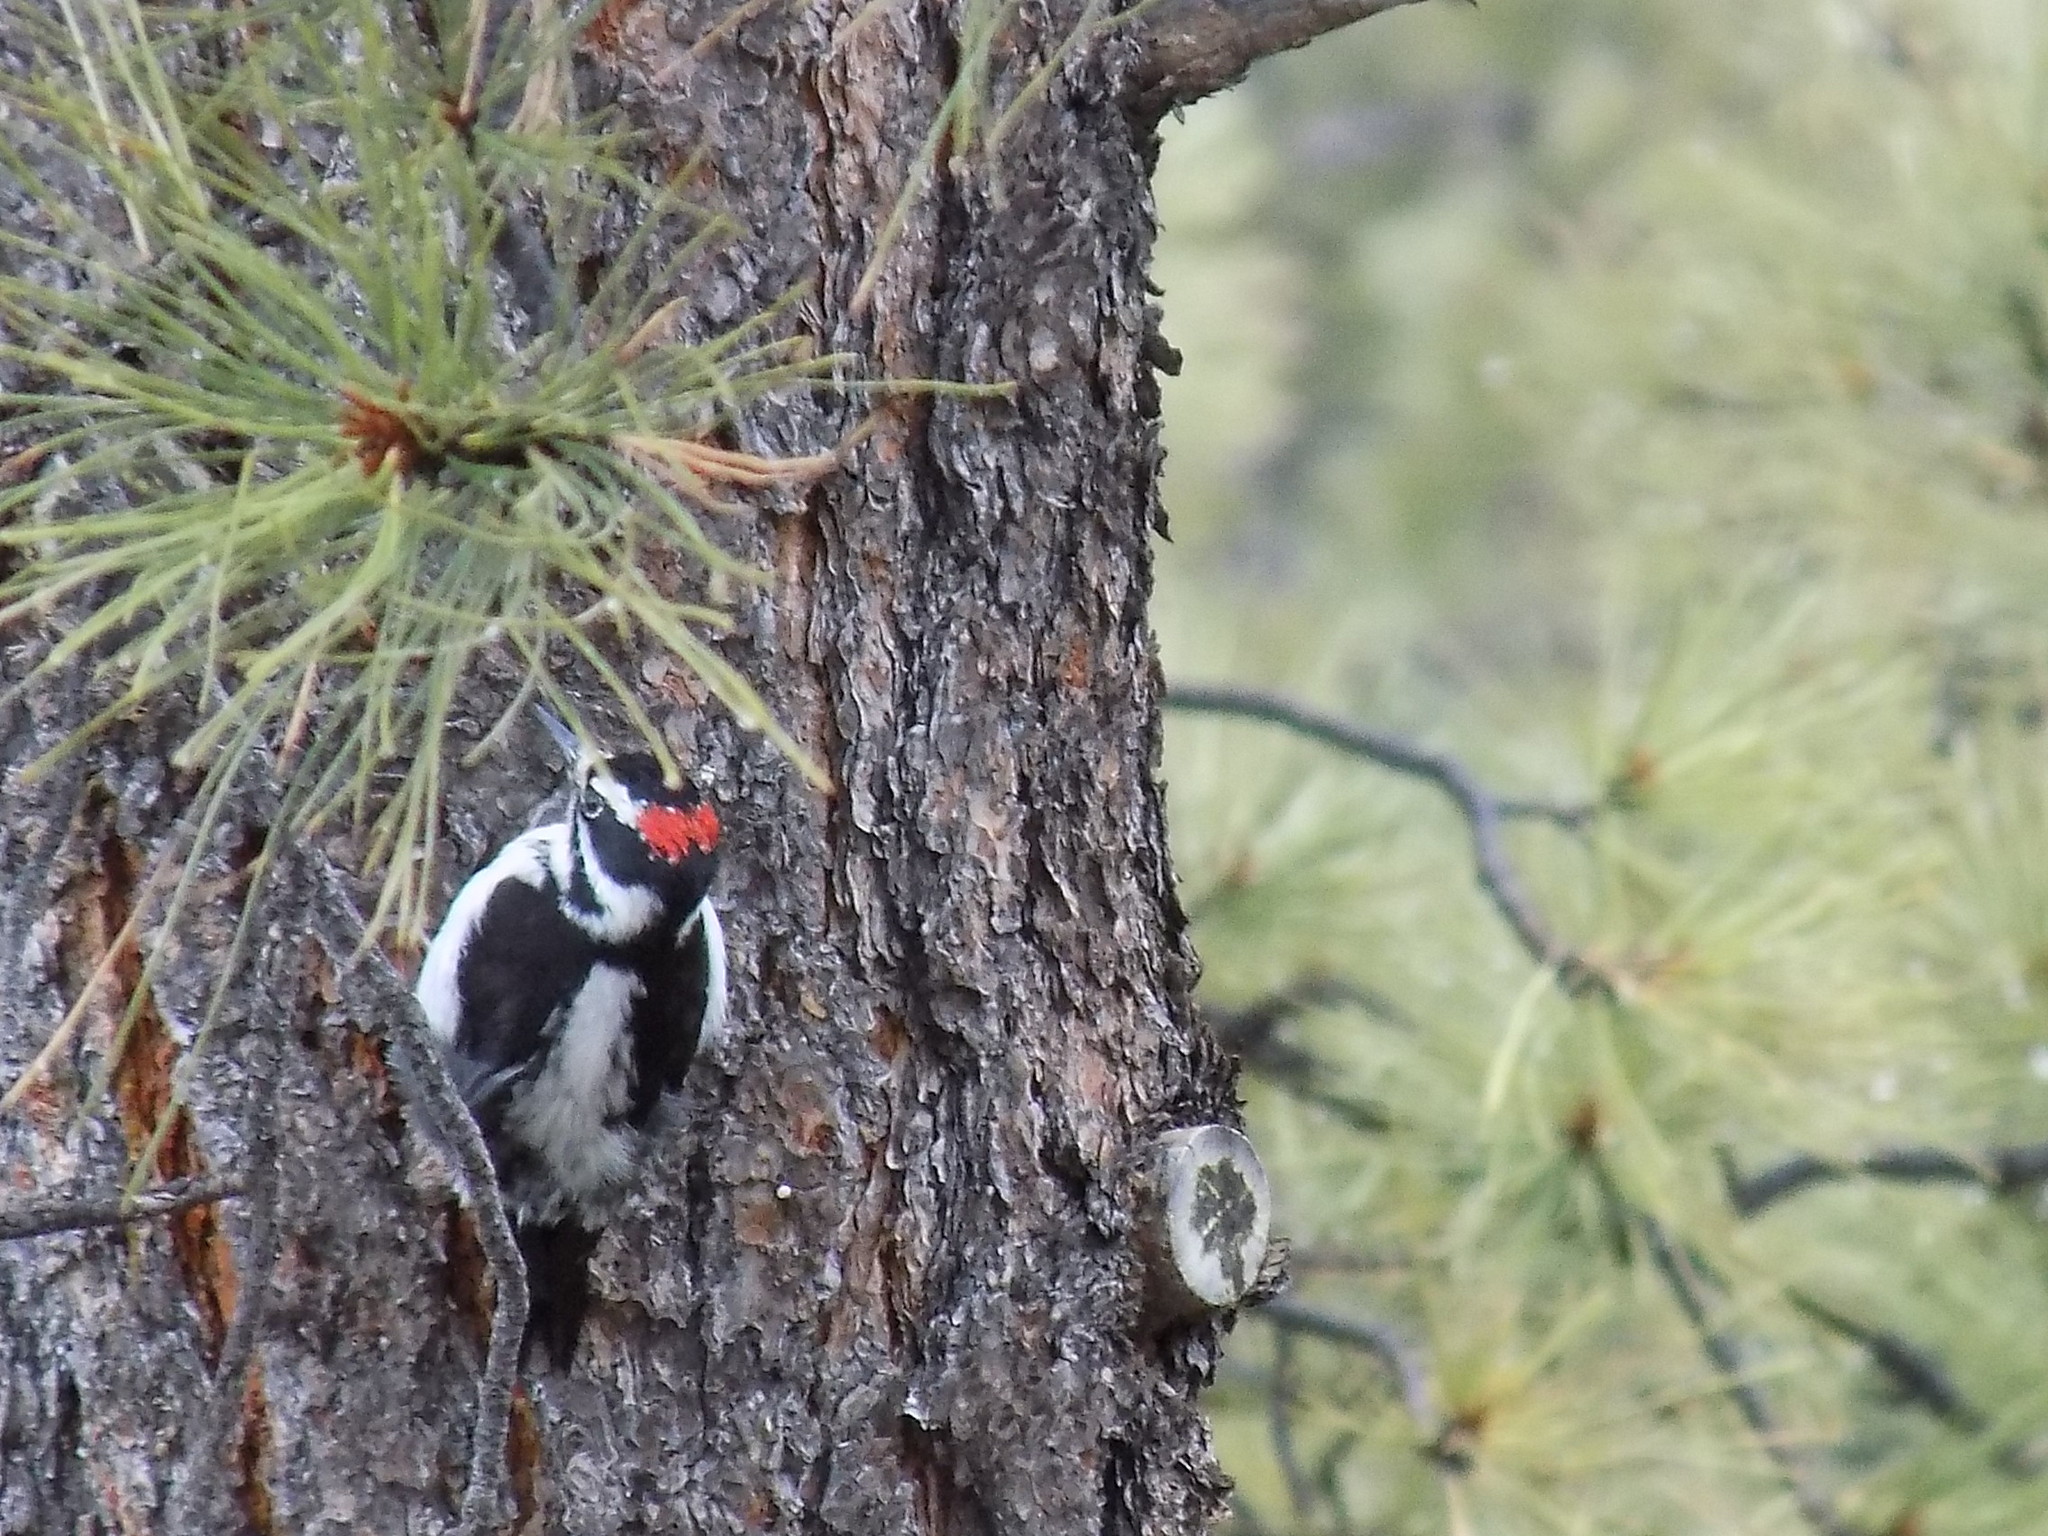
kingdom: Animalia
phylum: Chordata
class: Aves
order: Piciformes
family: Picidae
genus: Leuconotopicus
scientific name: Leuconotopicus villosus
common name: Hairy woodpecker
